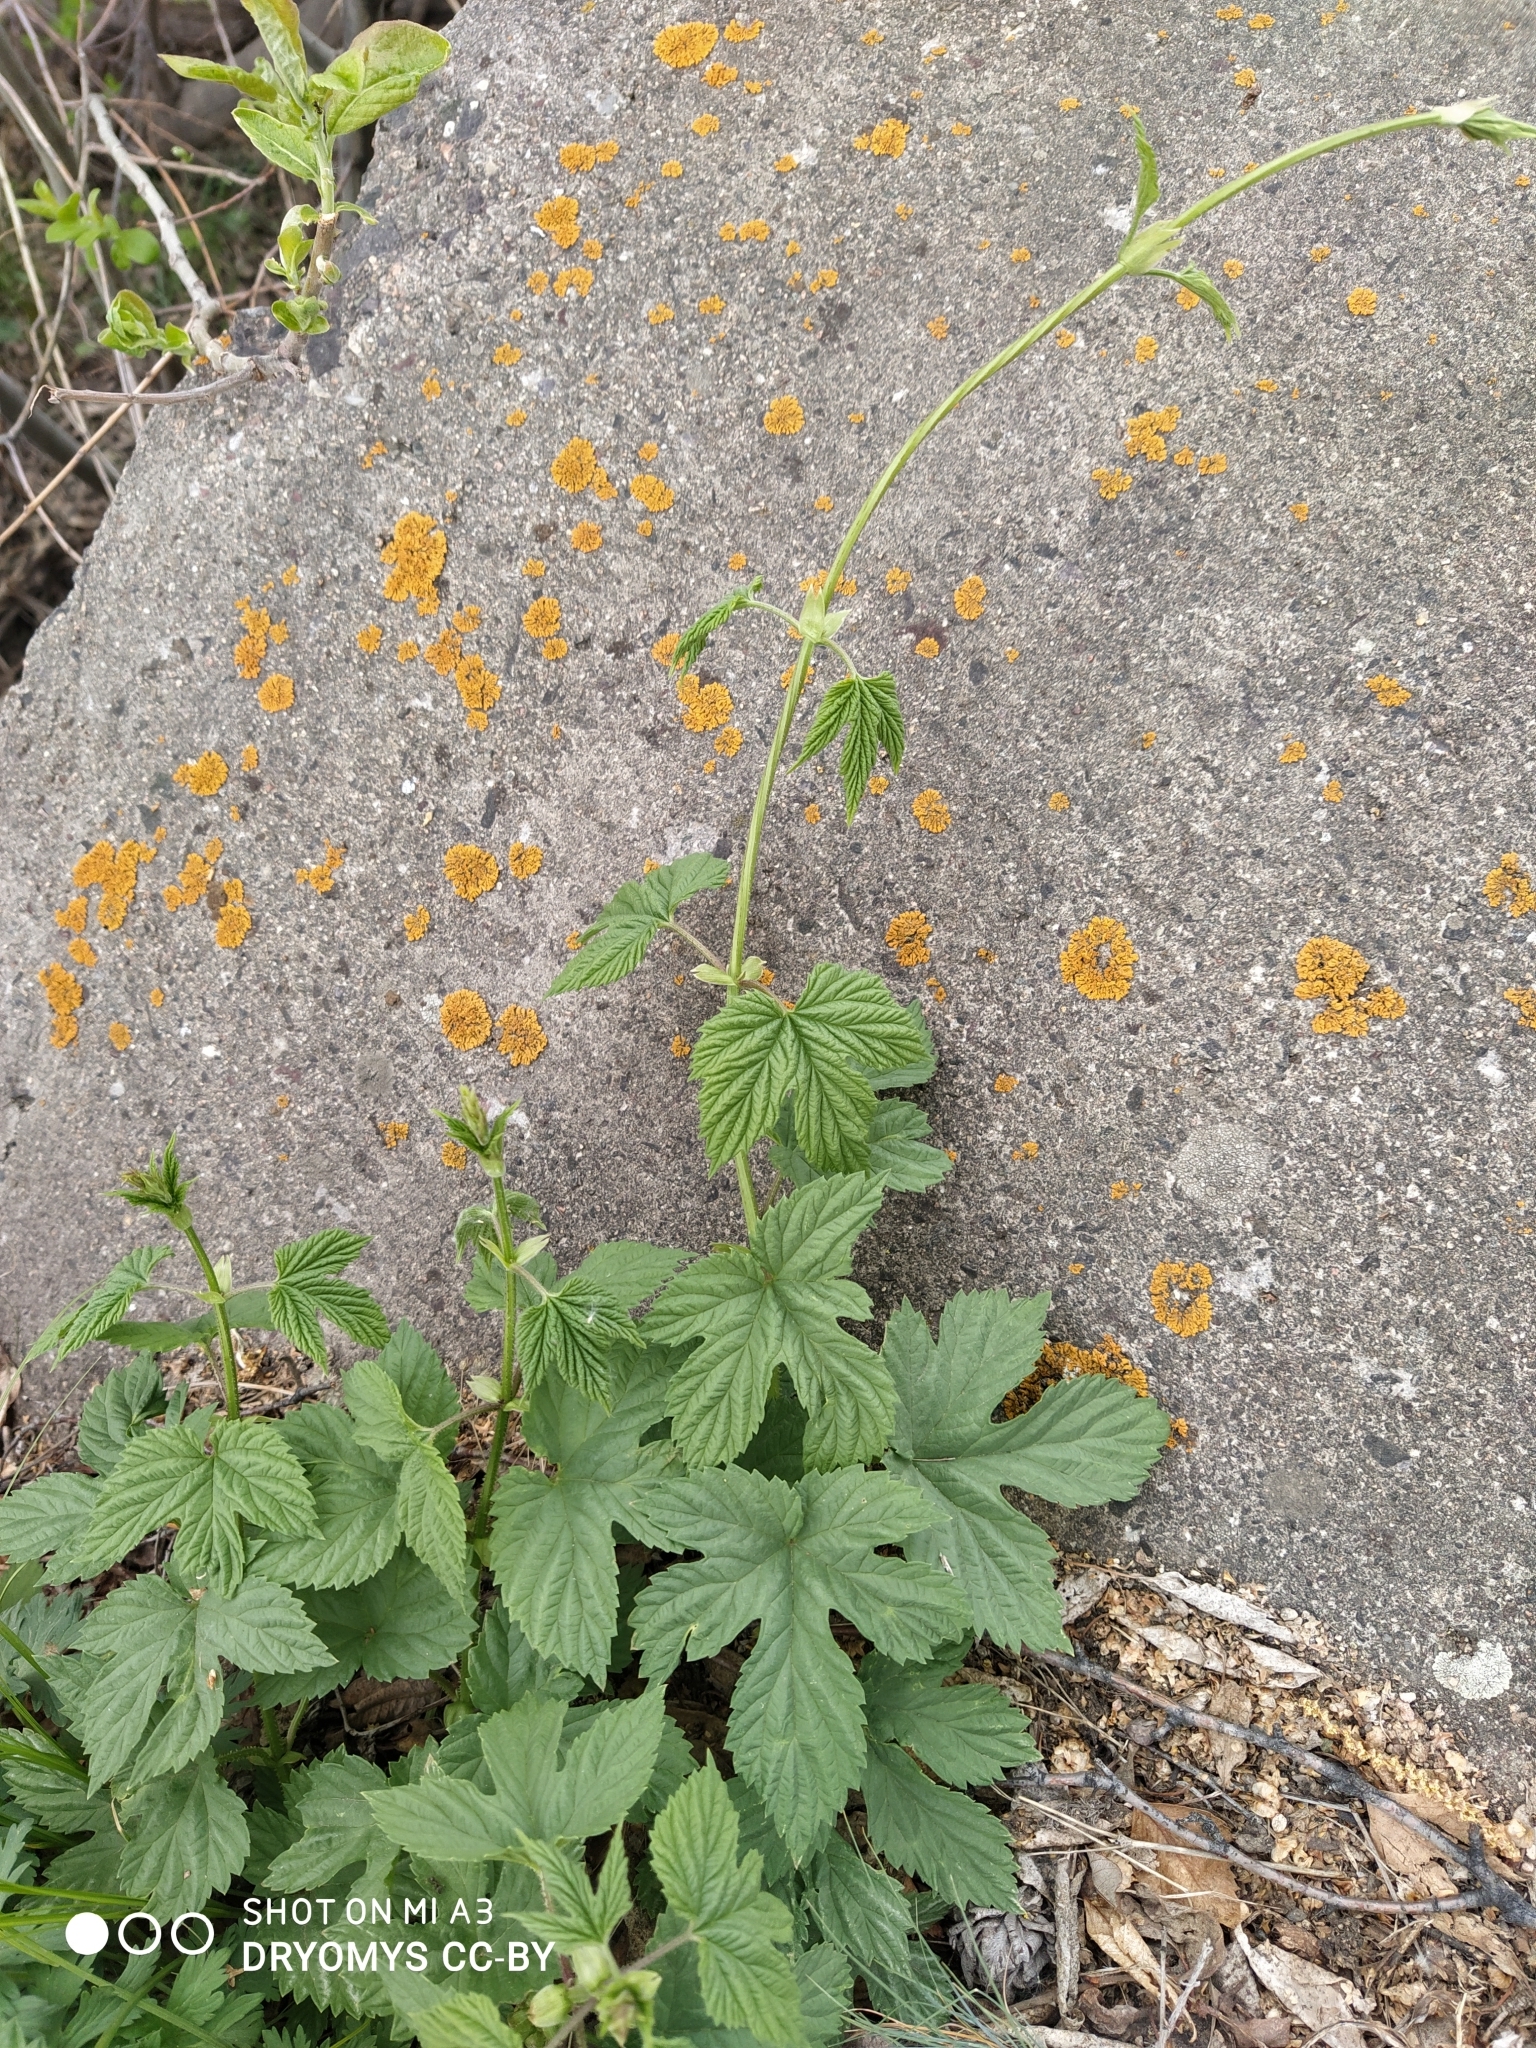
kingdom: Plantae
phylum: Tracheophyta
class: Magnoliopsida
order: Rosales
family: Cannabaceae
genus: Humulus
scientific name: Humulus lupulus
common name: Hop
